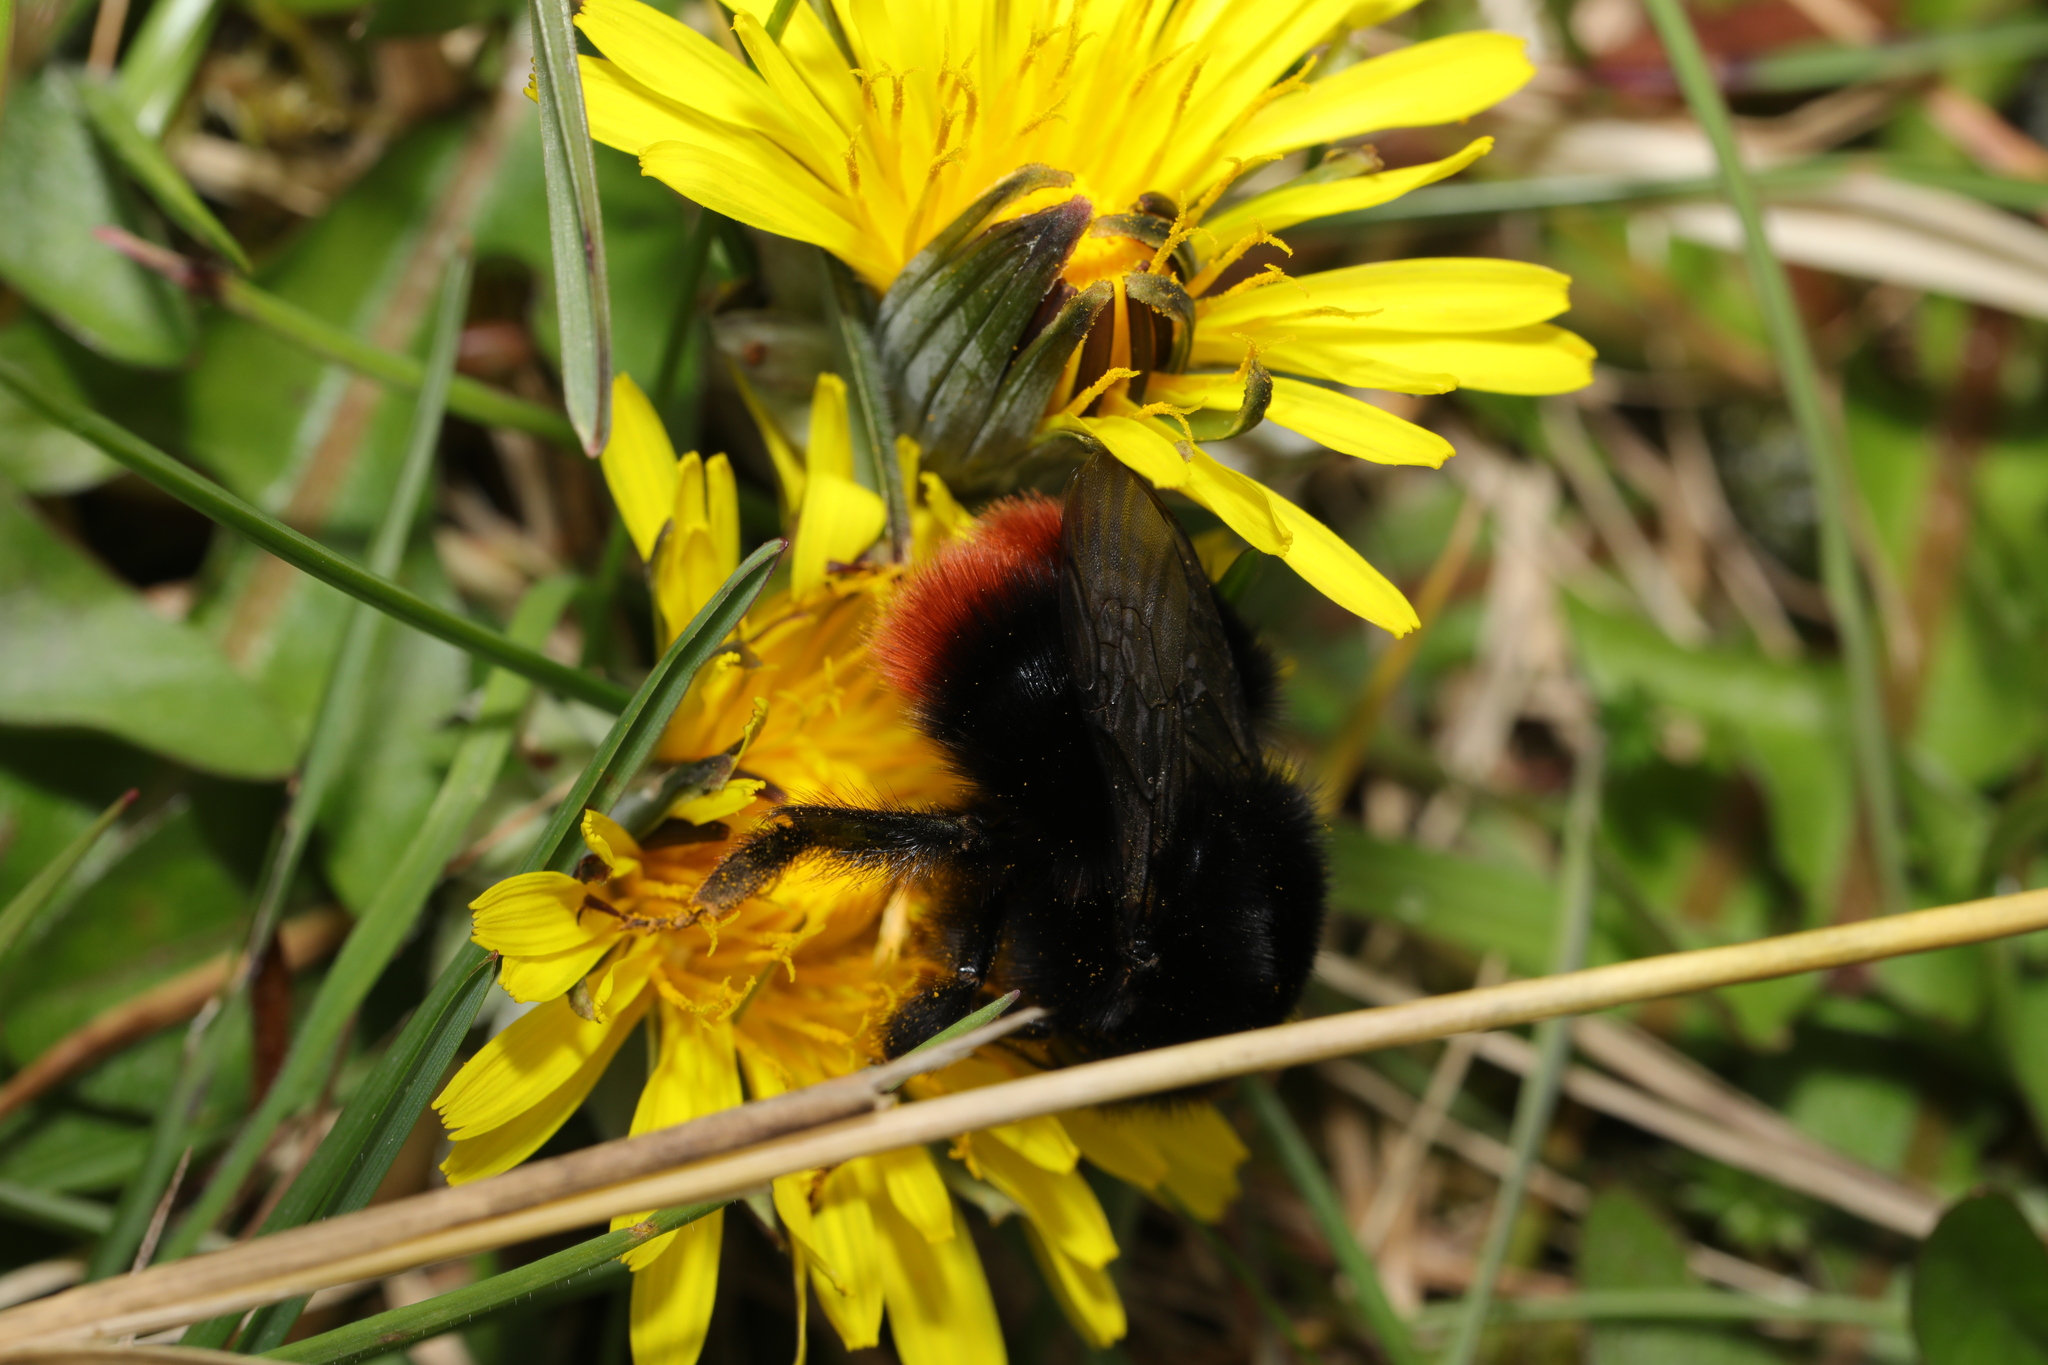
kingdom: Animalia
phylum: Arthropoda
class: Insecta
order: Hymenoptera
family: Apidae
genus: Bombus
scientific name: Bombus lapidarius
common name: Large red-tailed humble-bee
